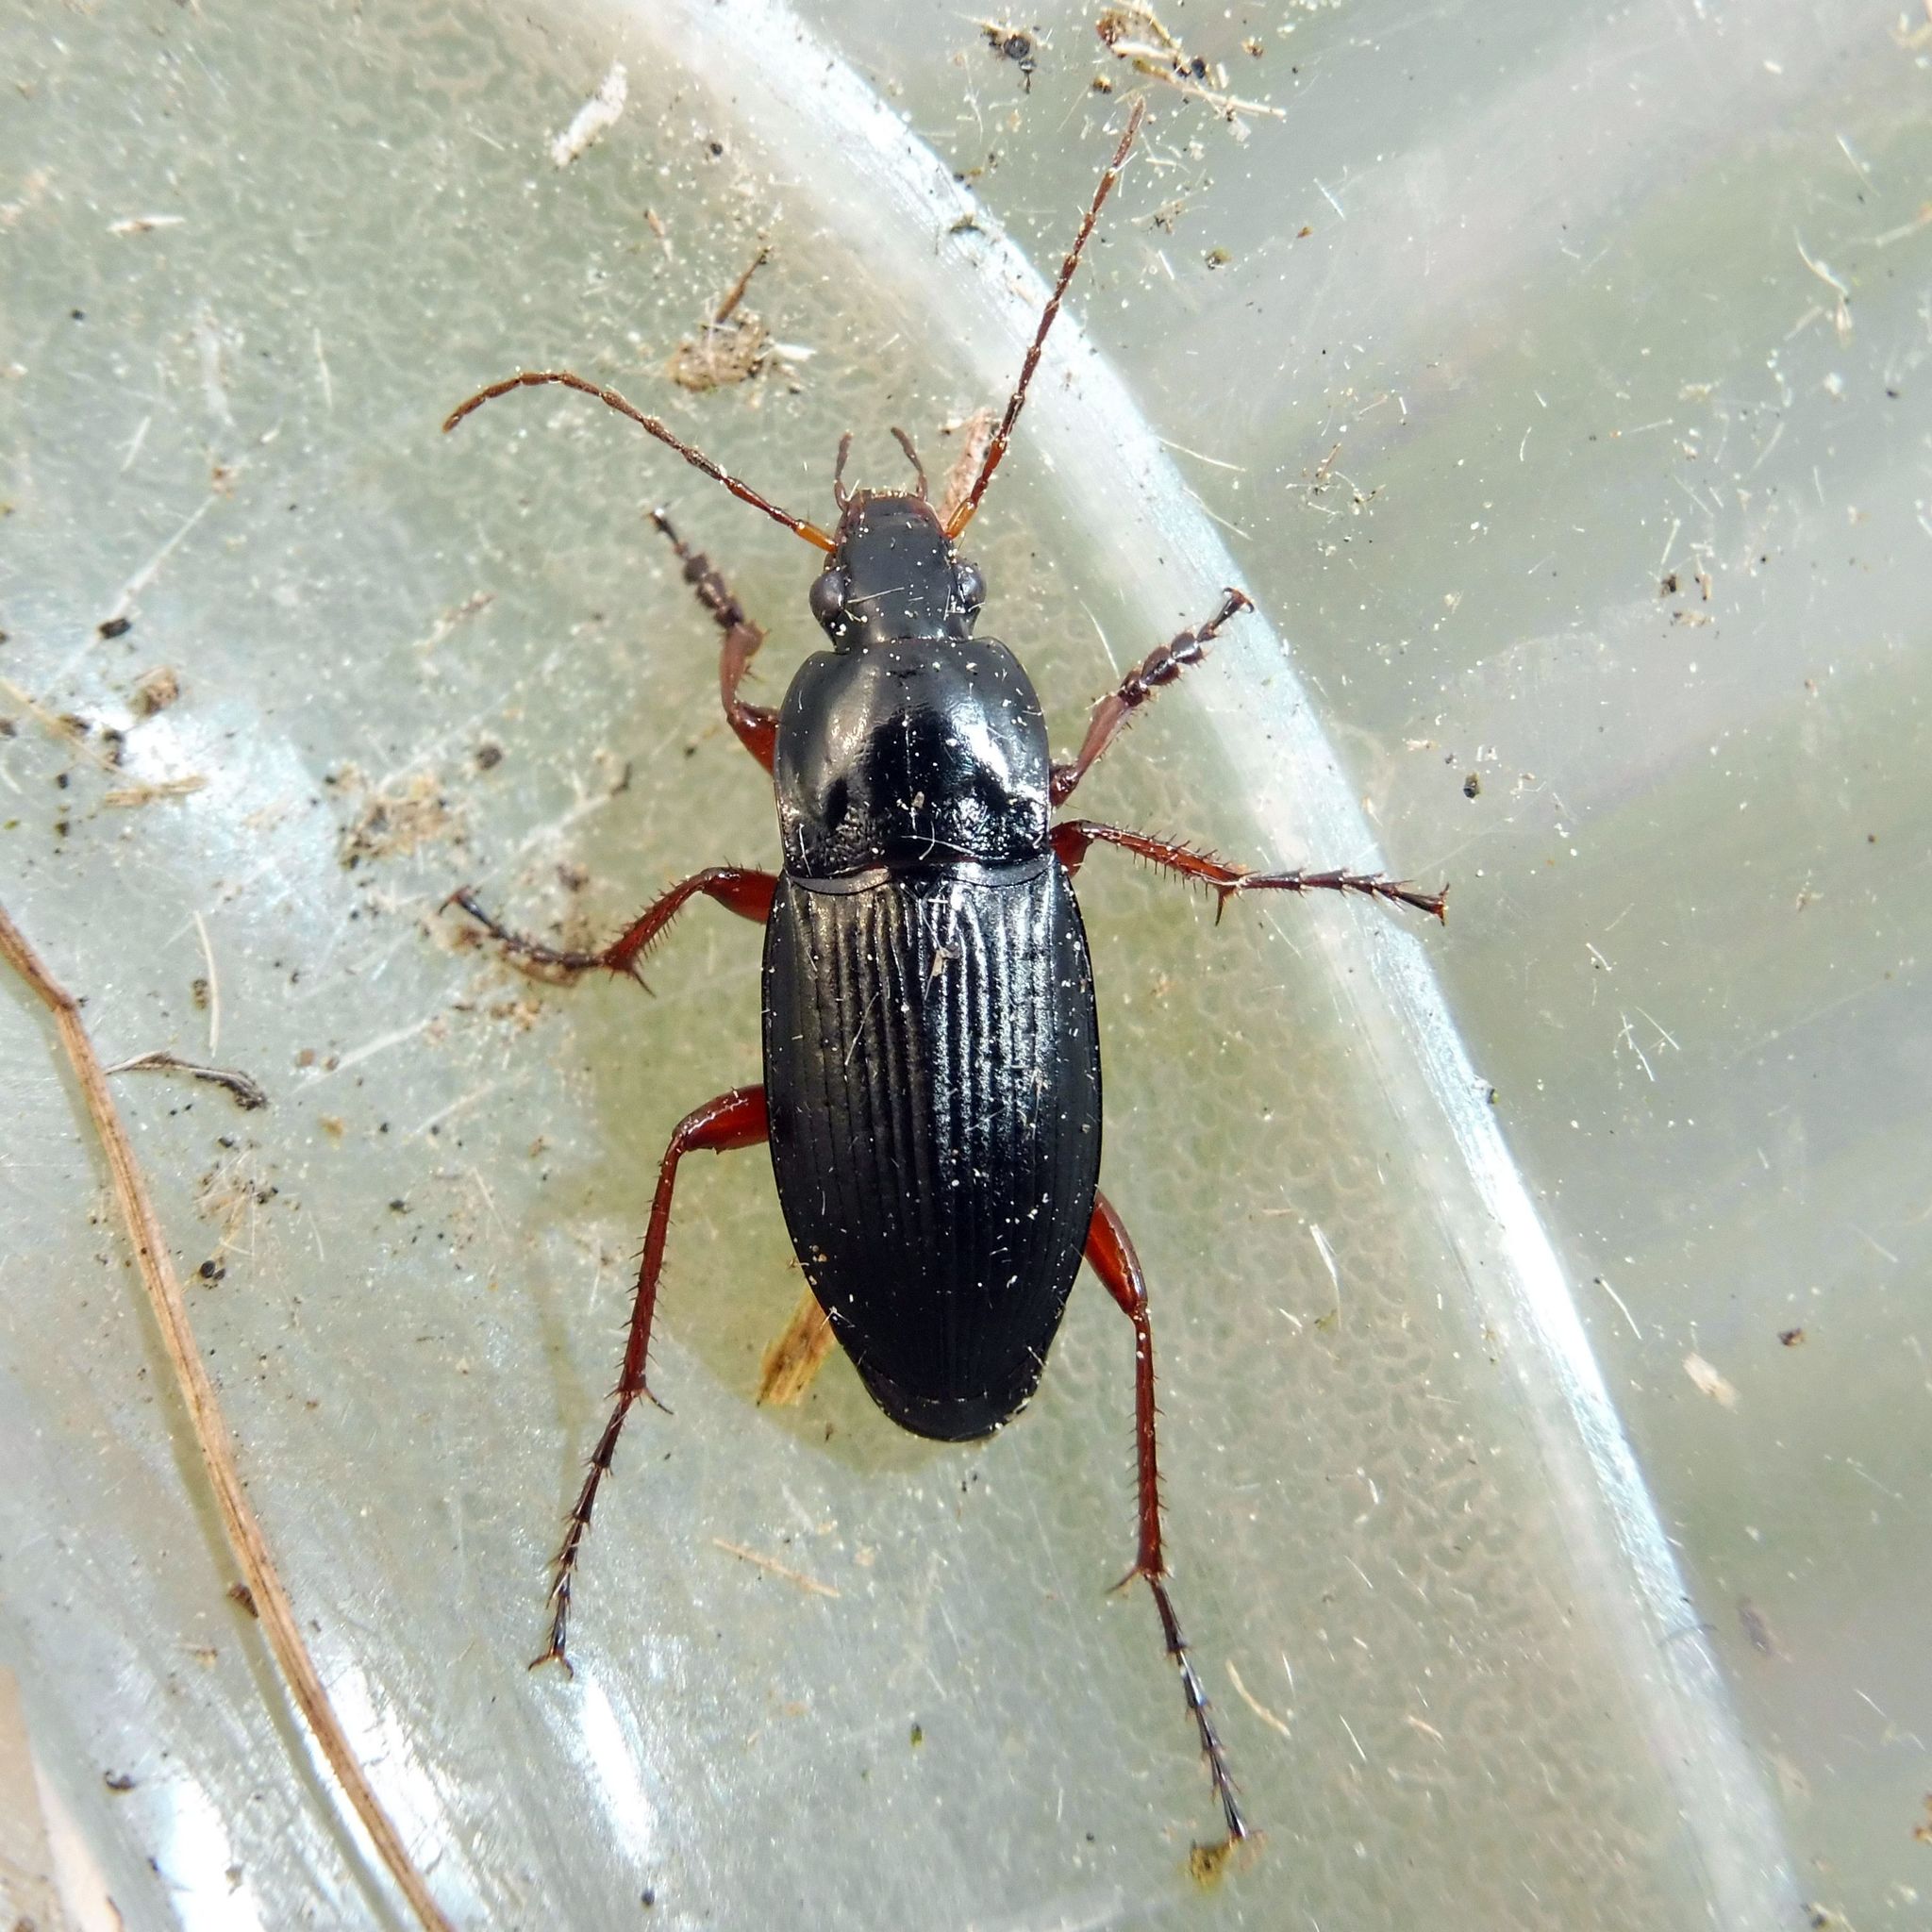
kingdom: Animalia
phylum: Arthropoda
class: Insecta
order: Coleoptera
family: Carabidae
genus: Calathus
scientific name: Calathus fuscipes
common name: Dark-footed harp ground beetle
